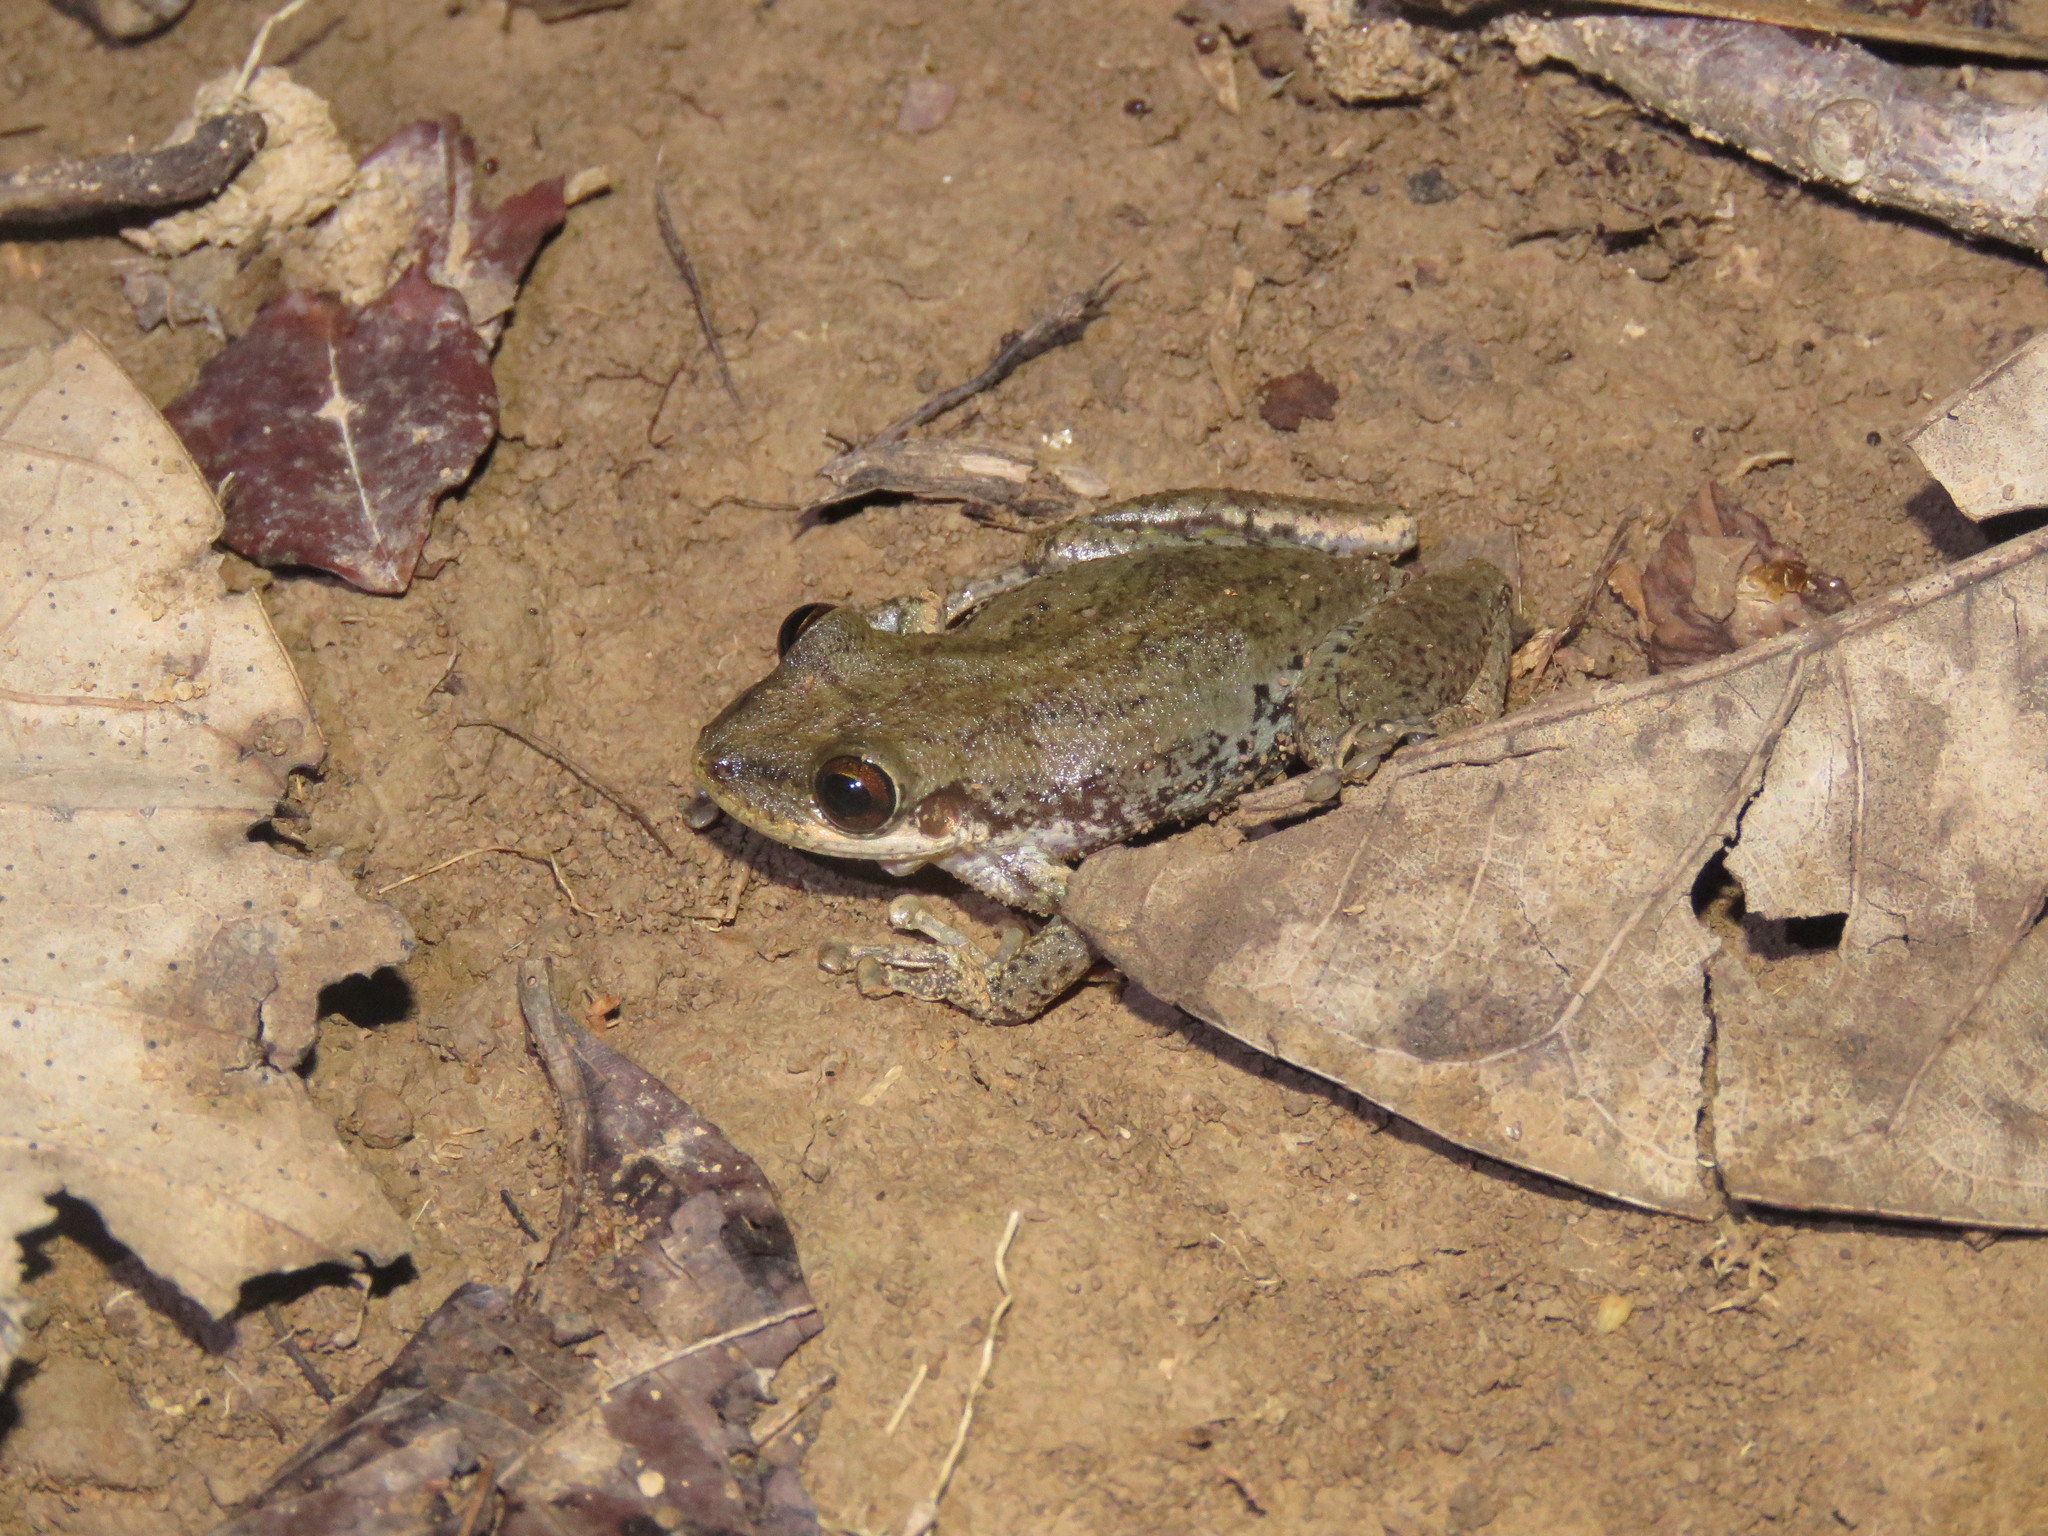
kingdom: Animalia
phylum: Chordata
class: Amphibia
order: Anura
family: Hylidae
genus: Scinax
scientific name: Scinax fuscovarius
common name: Fuscous-blotched treefrog
